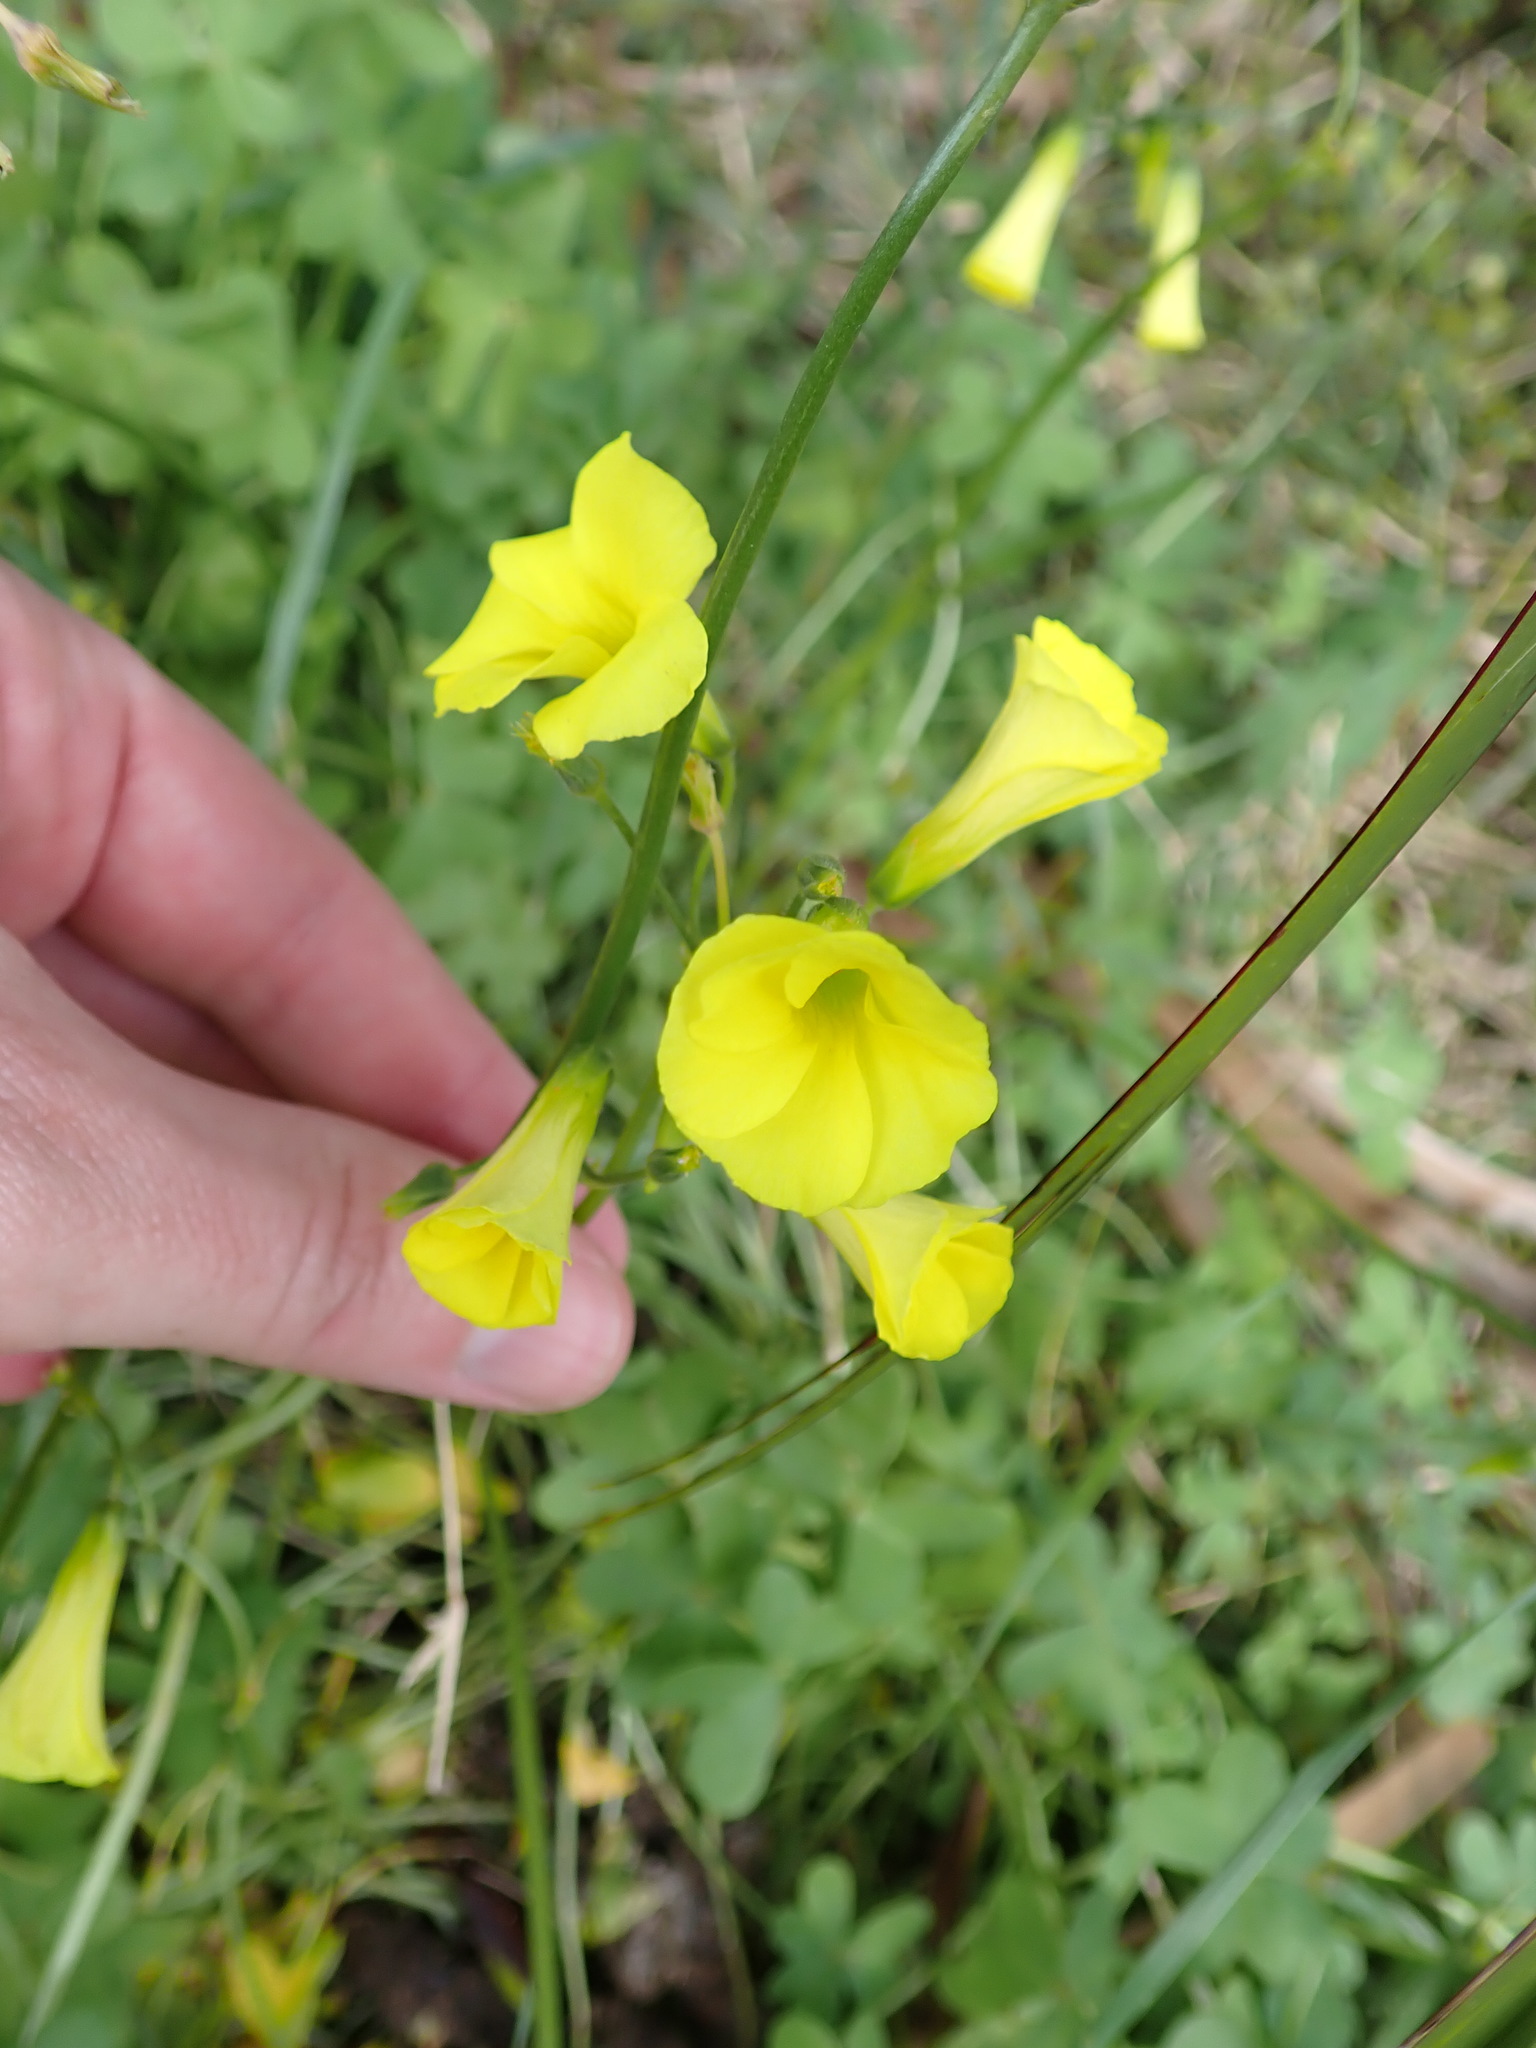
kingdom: Plantae
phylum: Tracheophyta
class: Magnoliopsida
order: Oxalidales
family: Oxalidaceae
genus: Oxalis
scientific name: Oxalis pes-caprae
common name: Bermuda-buttercup
